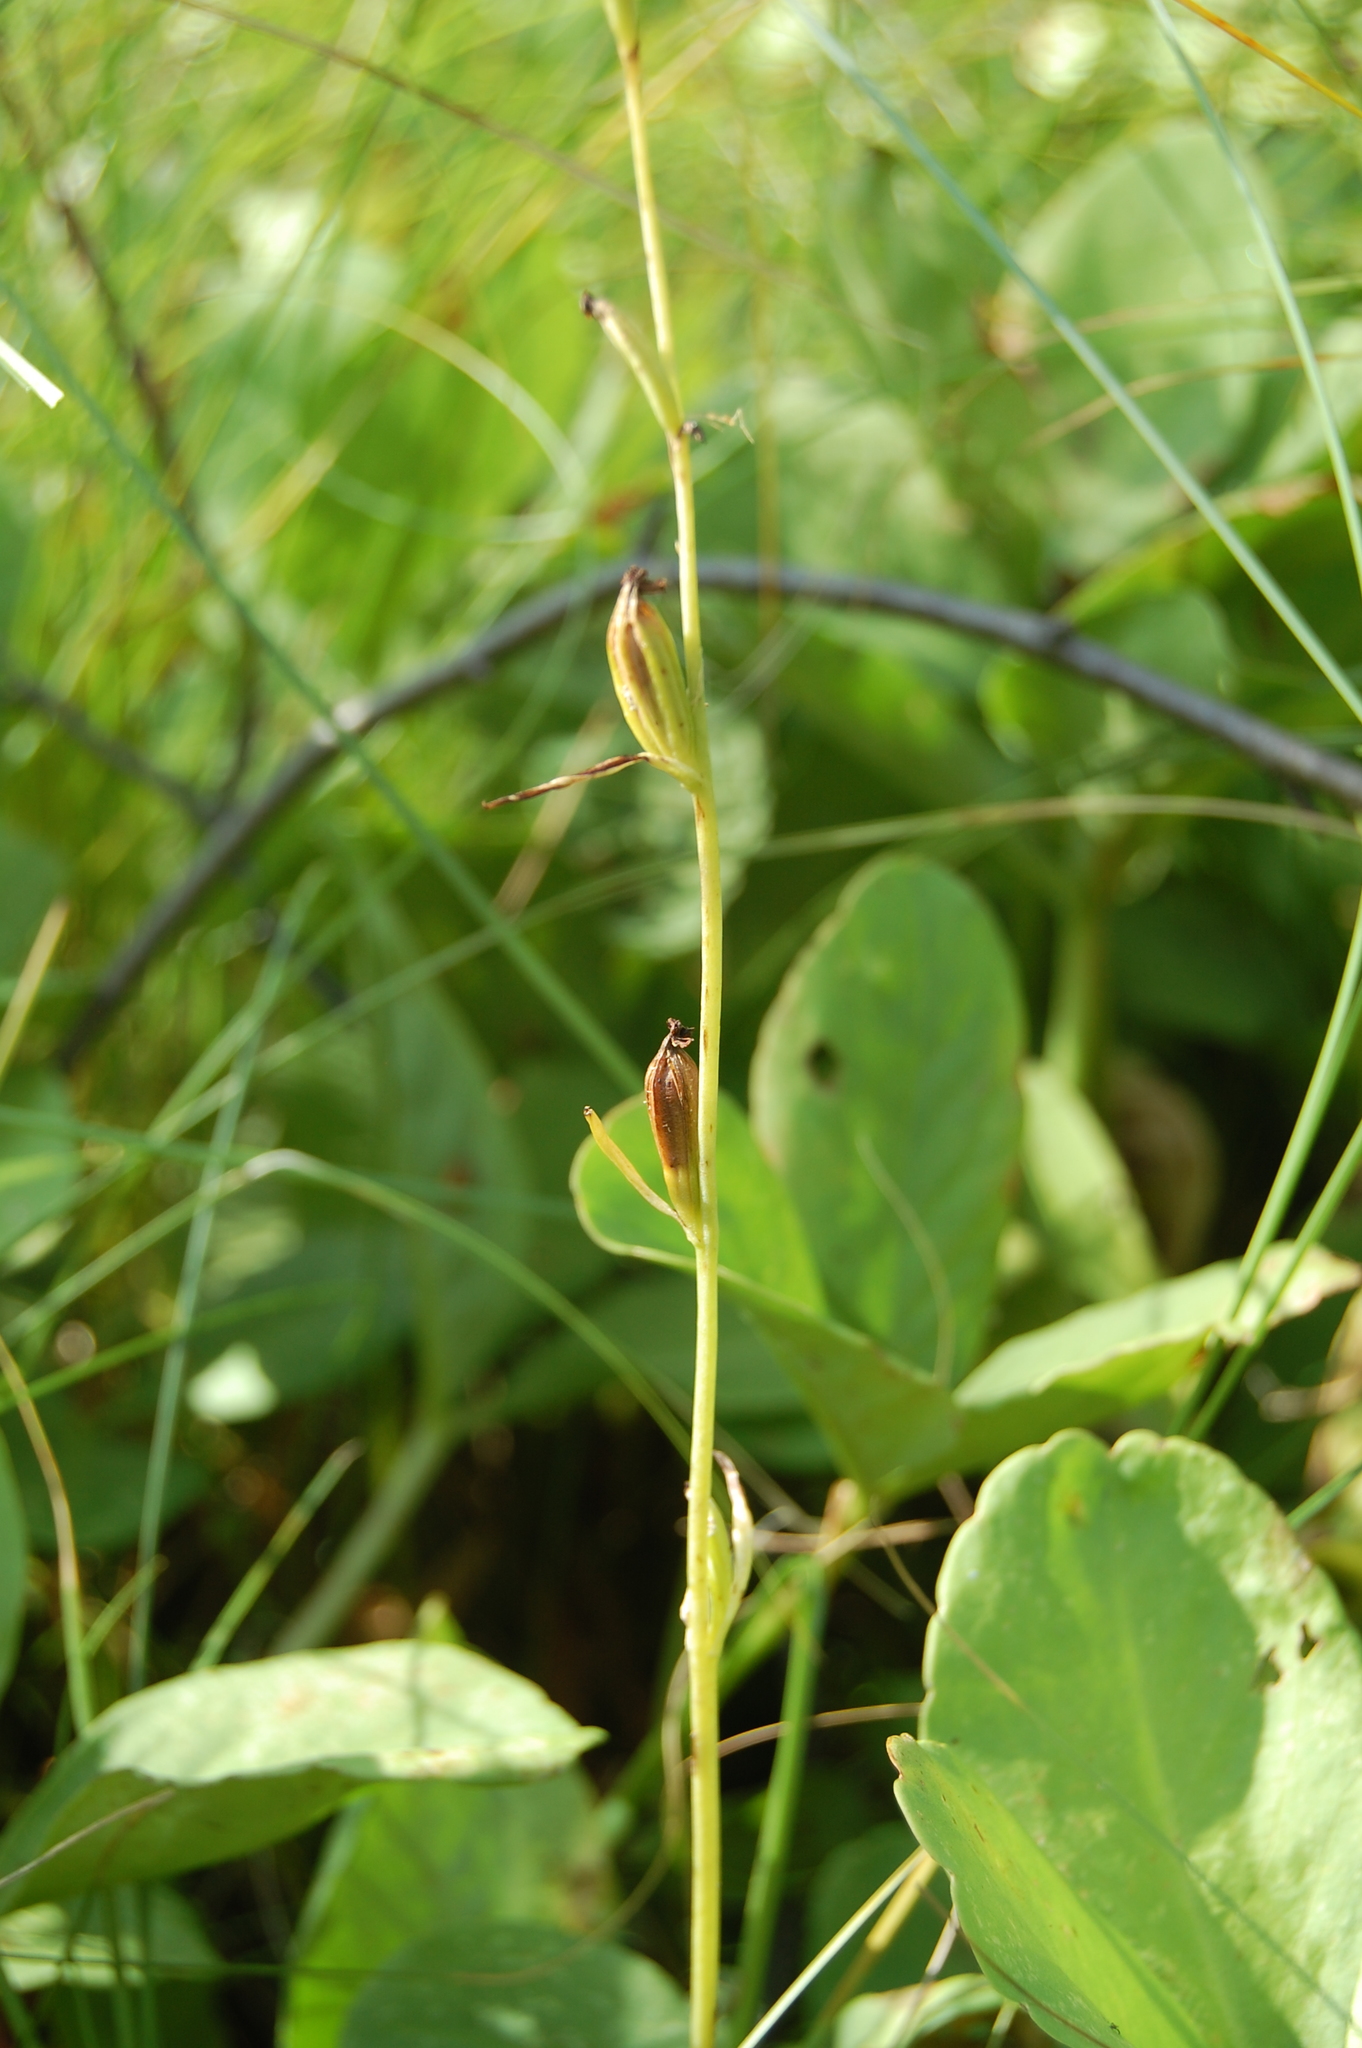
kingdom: Plantae
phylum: Tracheophyta
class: Liliopsida
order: Asparagales
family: Orchidaceae
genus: Ophrys
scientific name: Ophrys insectifera
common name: Fly orchid
